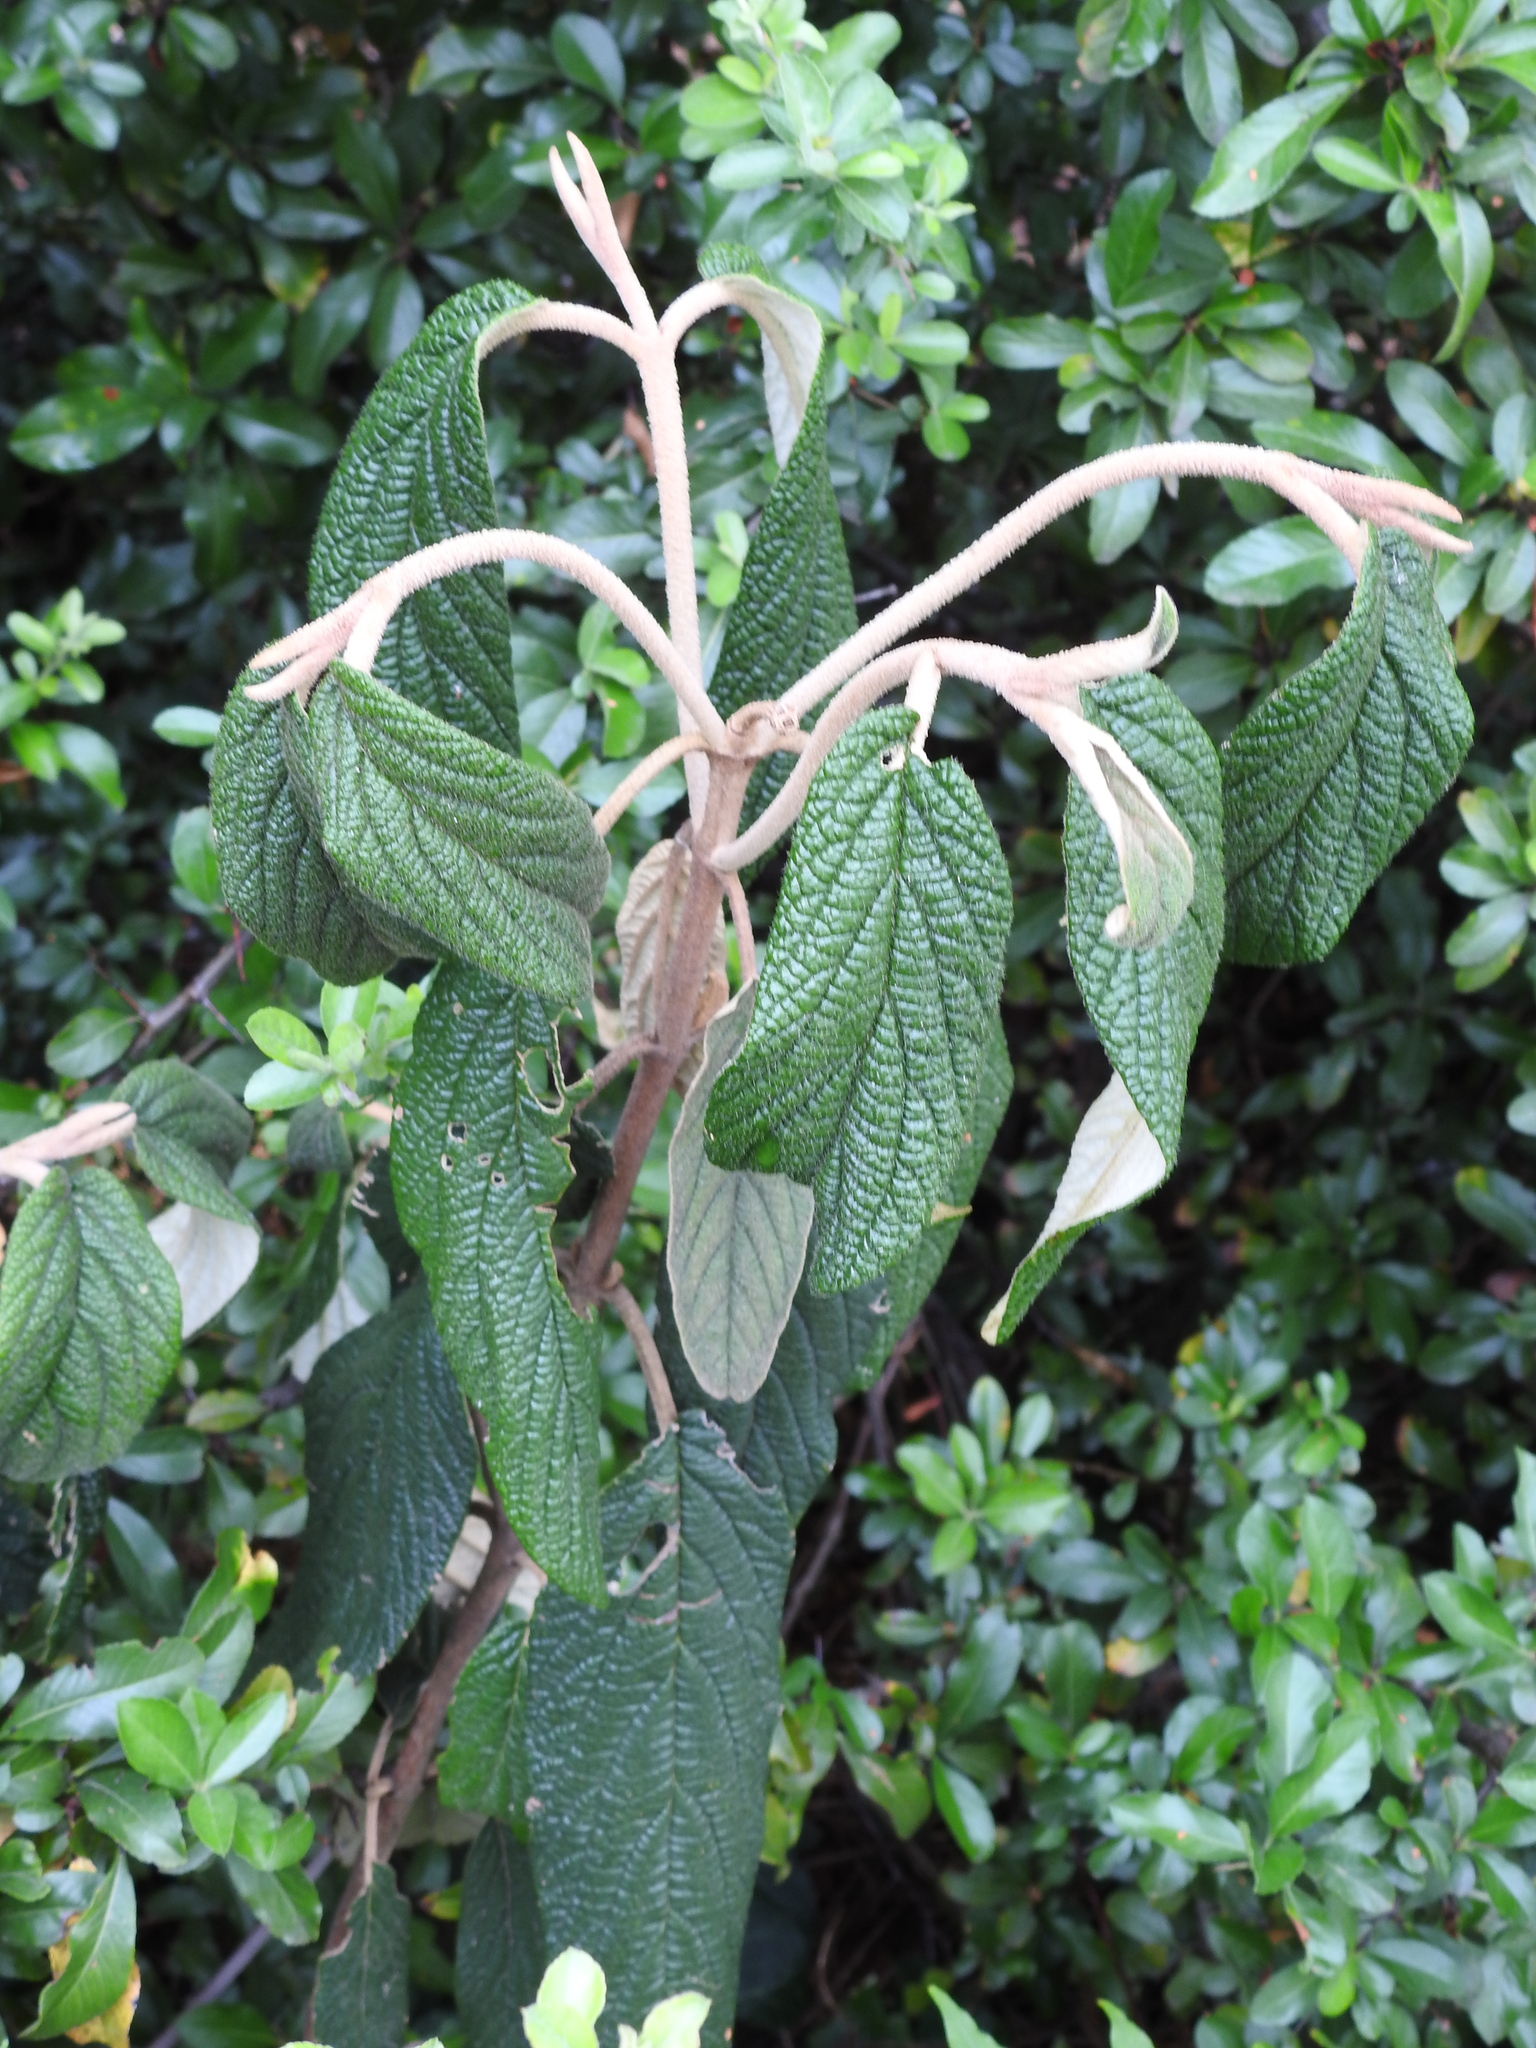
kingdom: Plantae
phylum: Tracheophyta
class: Magnoliopsida
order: Dipsacales
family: Viburnaceae
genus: Viburnum
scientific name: Viburnum rhytidophyllum
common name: Wrinkled viburnum
